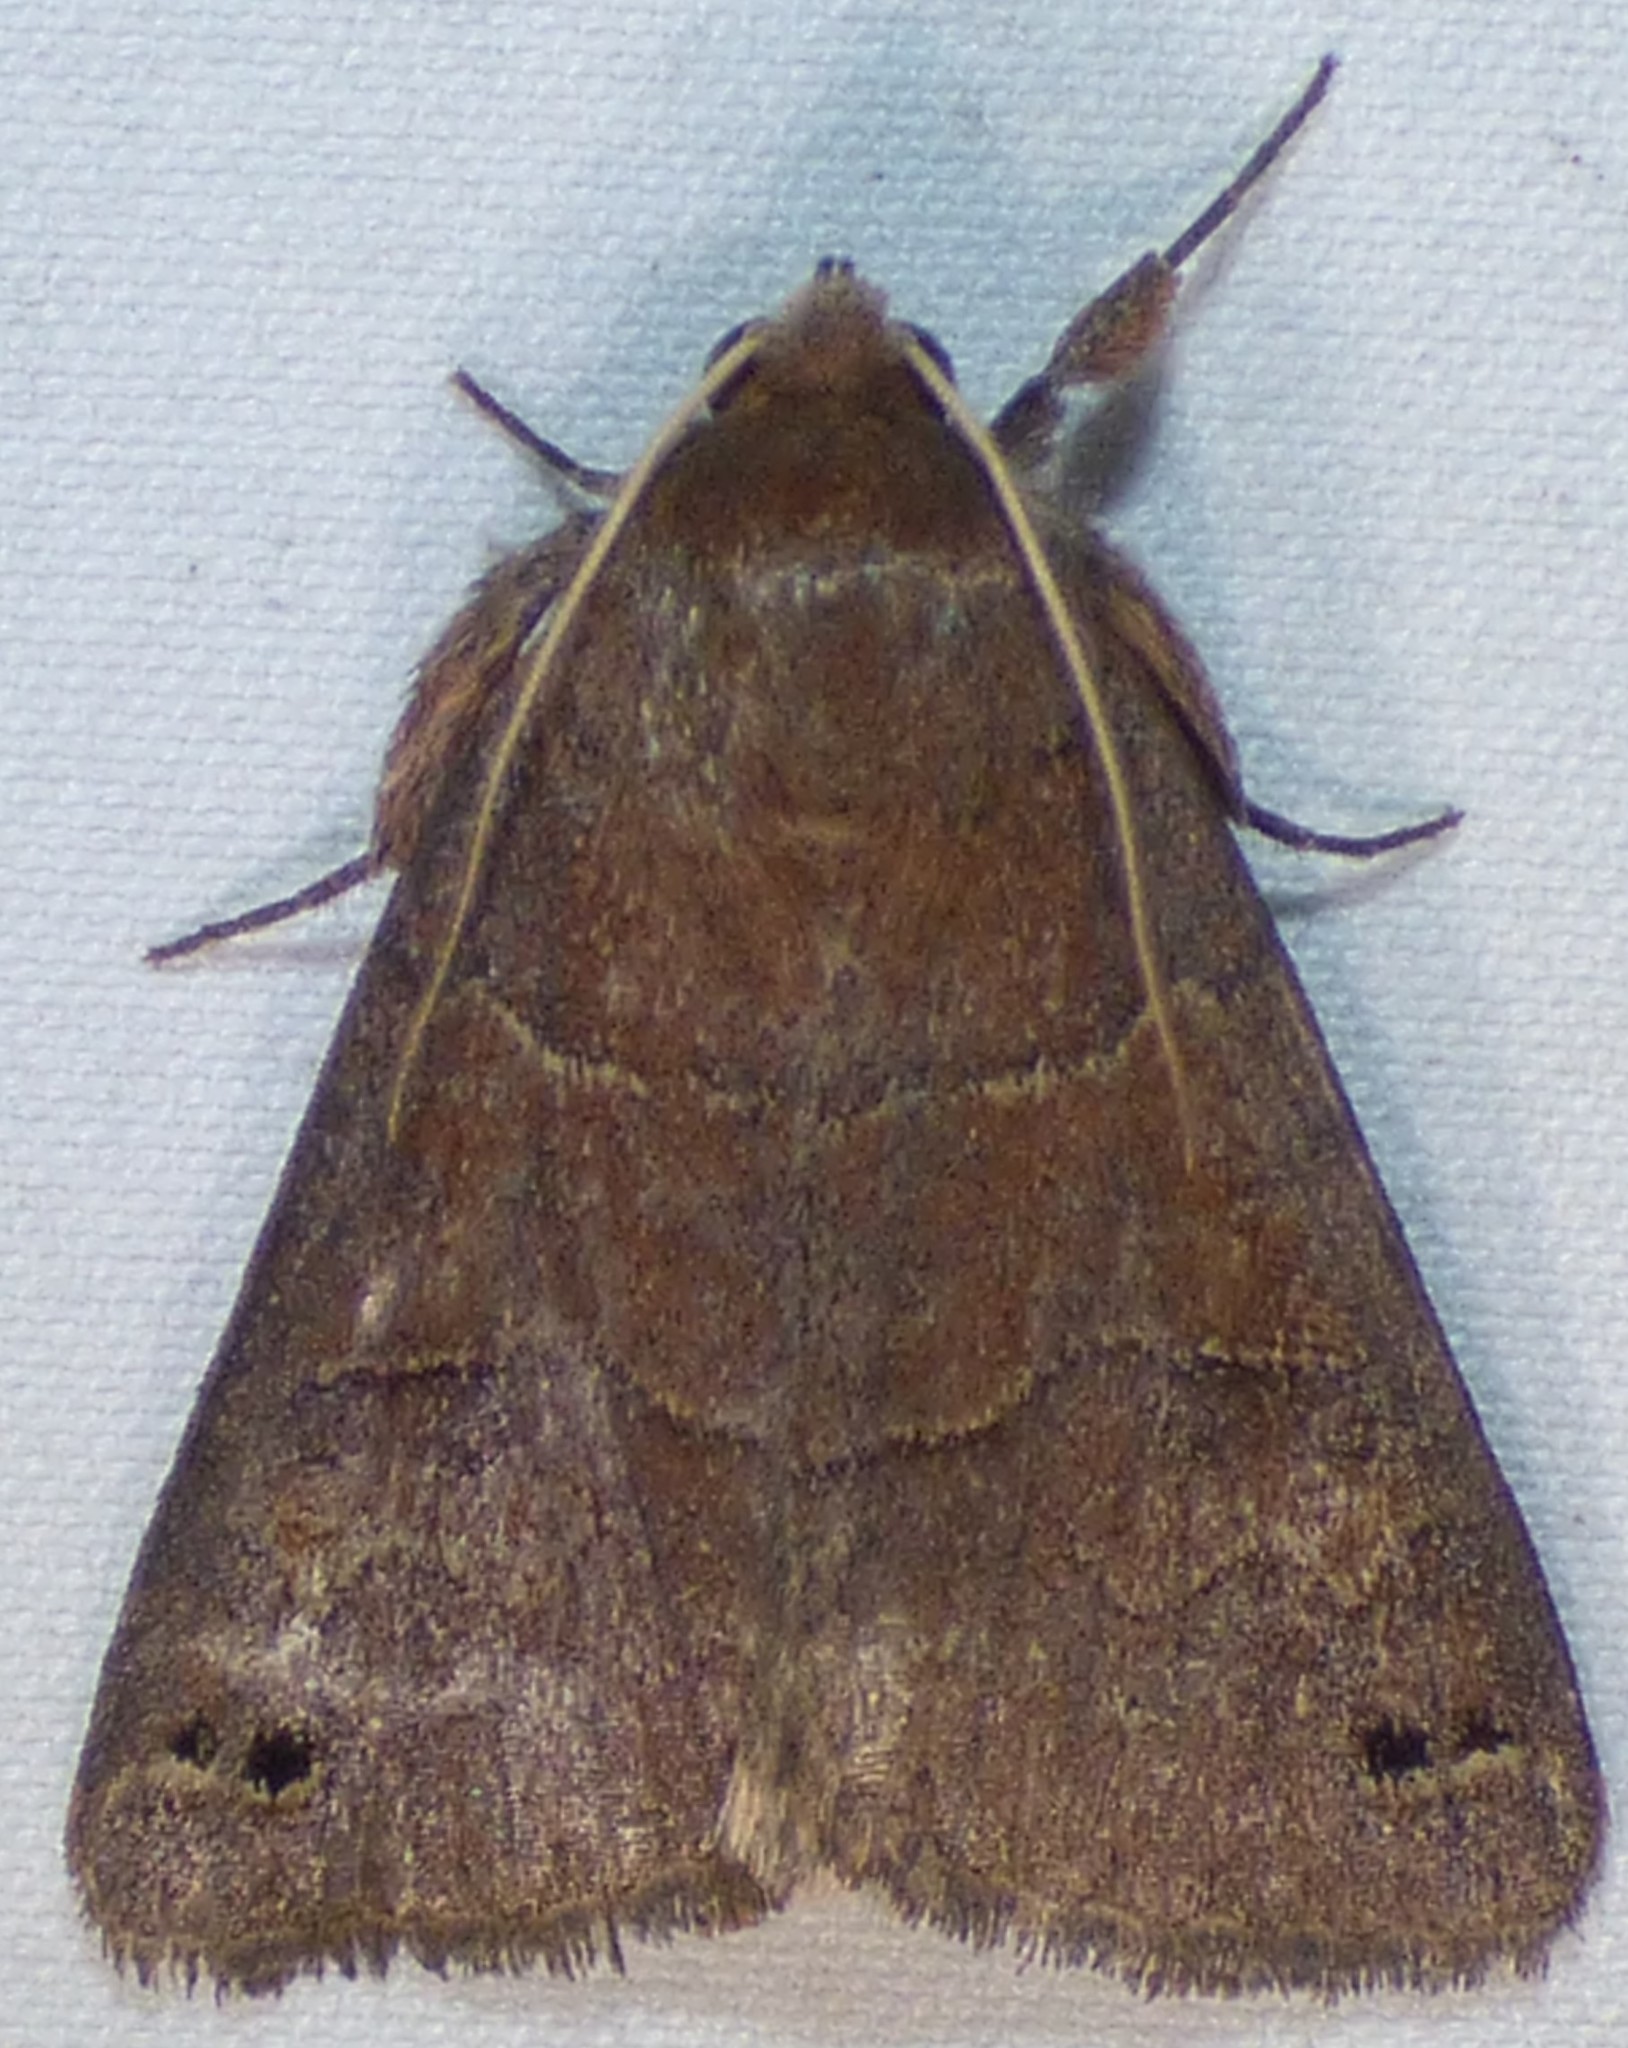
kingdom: Animalia
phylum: Arthropoda
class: Insecta
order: Lepidoptera
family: Erebidae
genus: Cissusa
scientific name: Cissusa spadix
